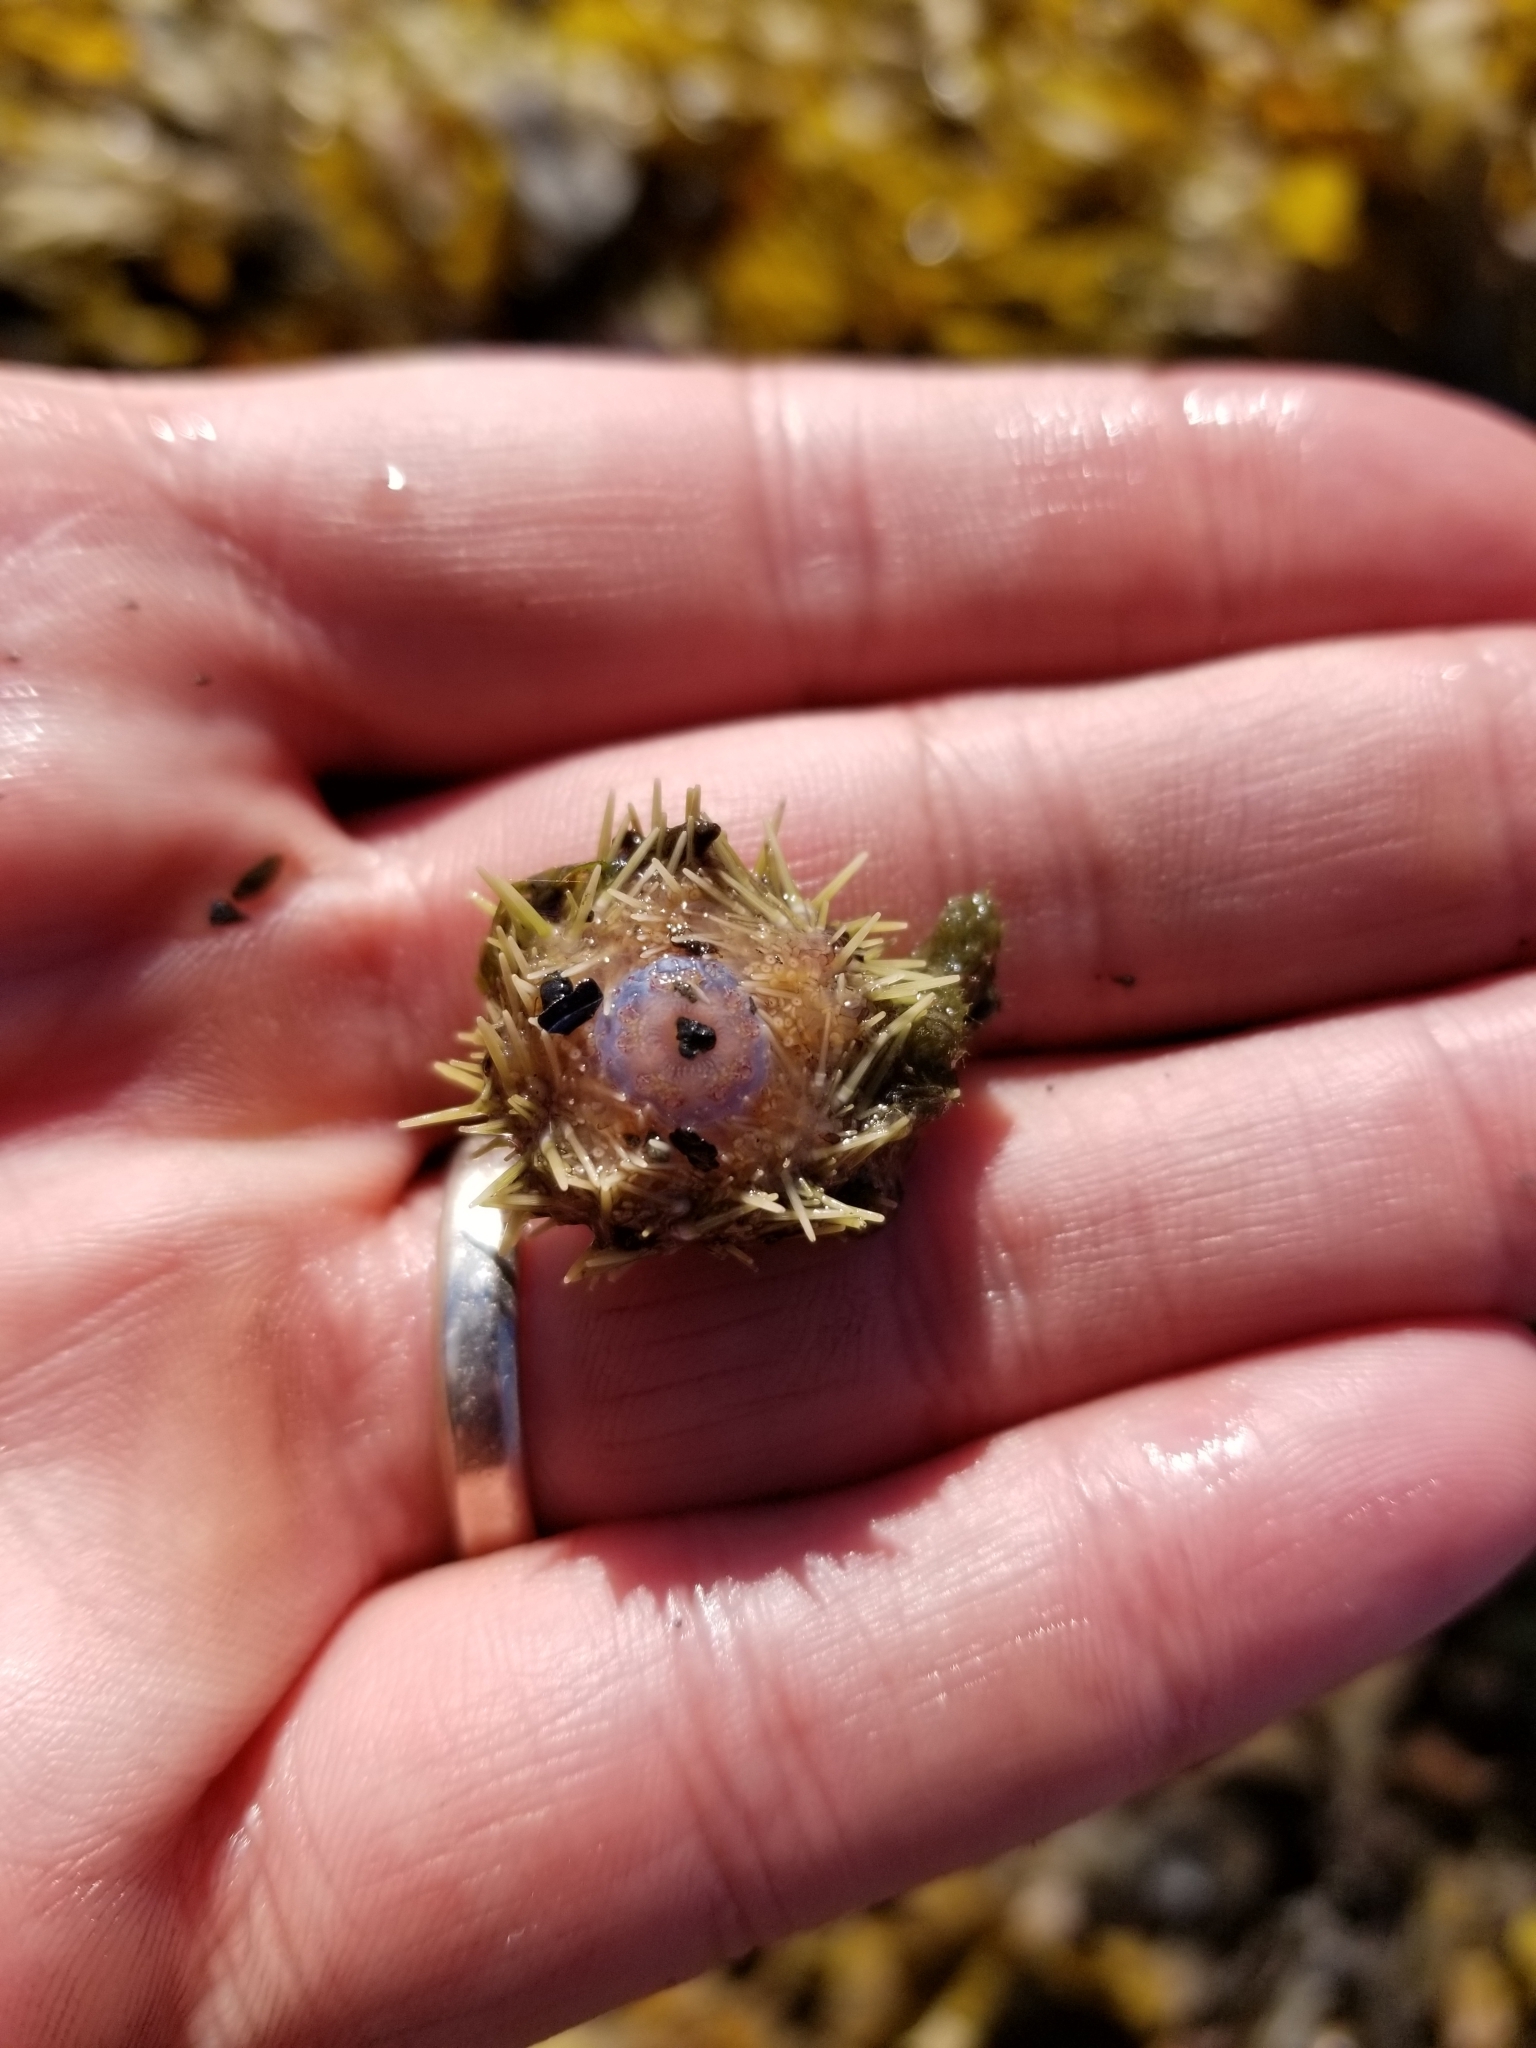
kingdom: Animalia
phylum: Echinodermata
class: Echinoidea
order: Camarodonta
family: Strongylocentrotidae
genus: Strongylocentrotus
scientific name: Strongylocentrotus droebachiensis
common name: Northern sea urchin
